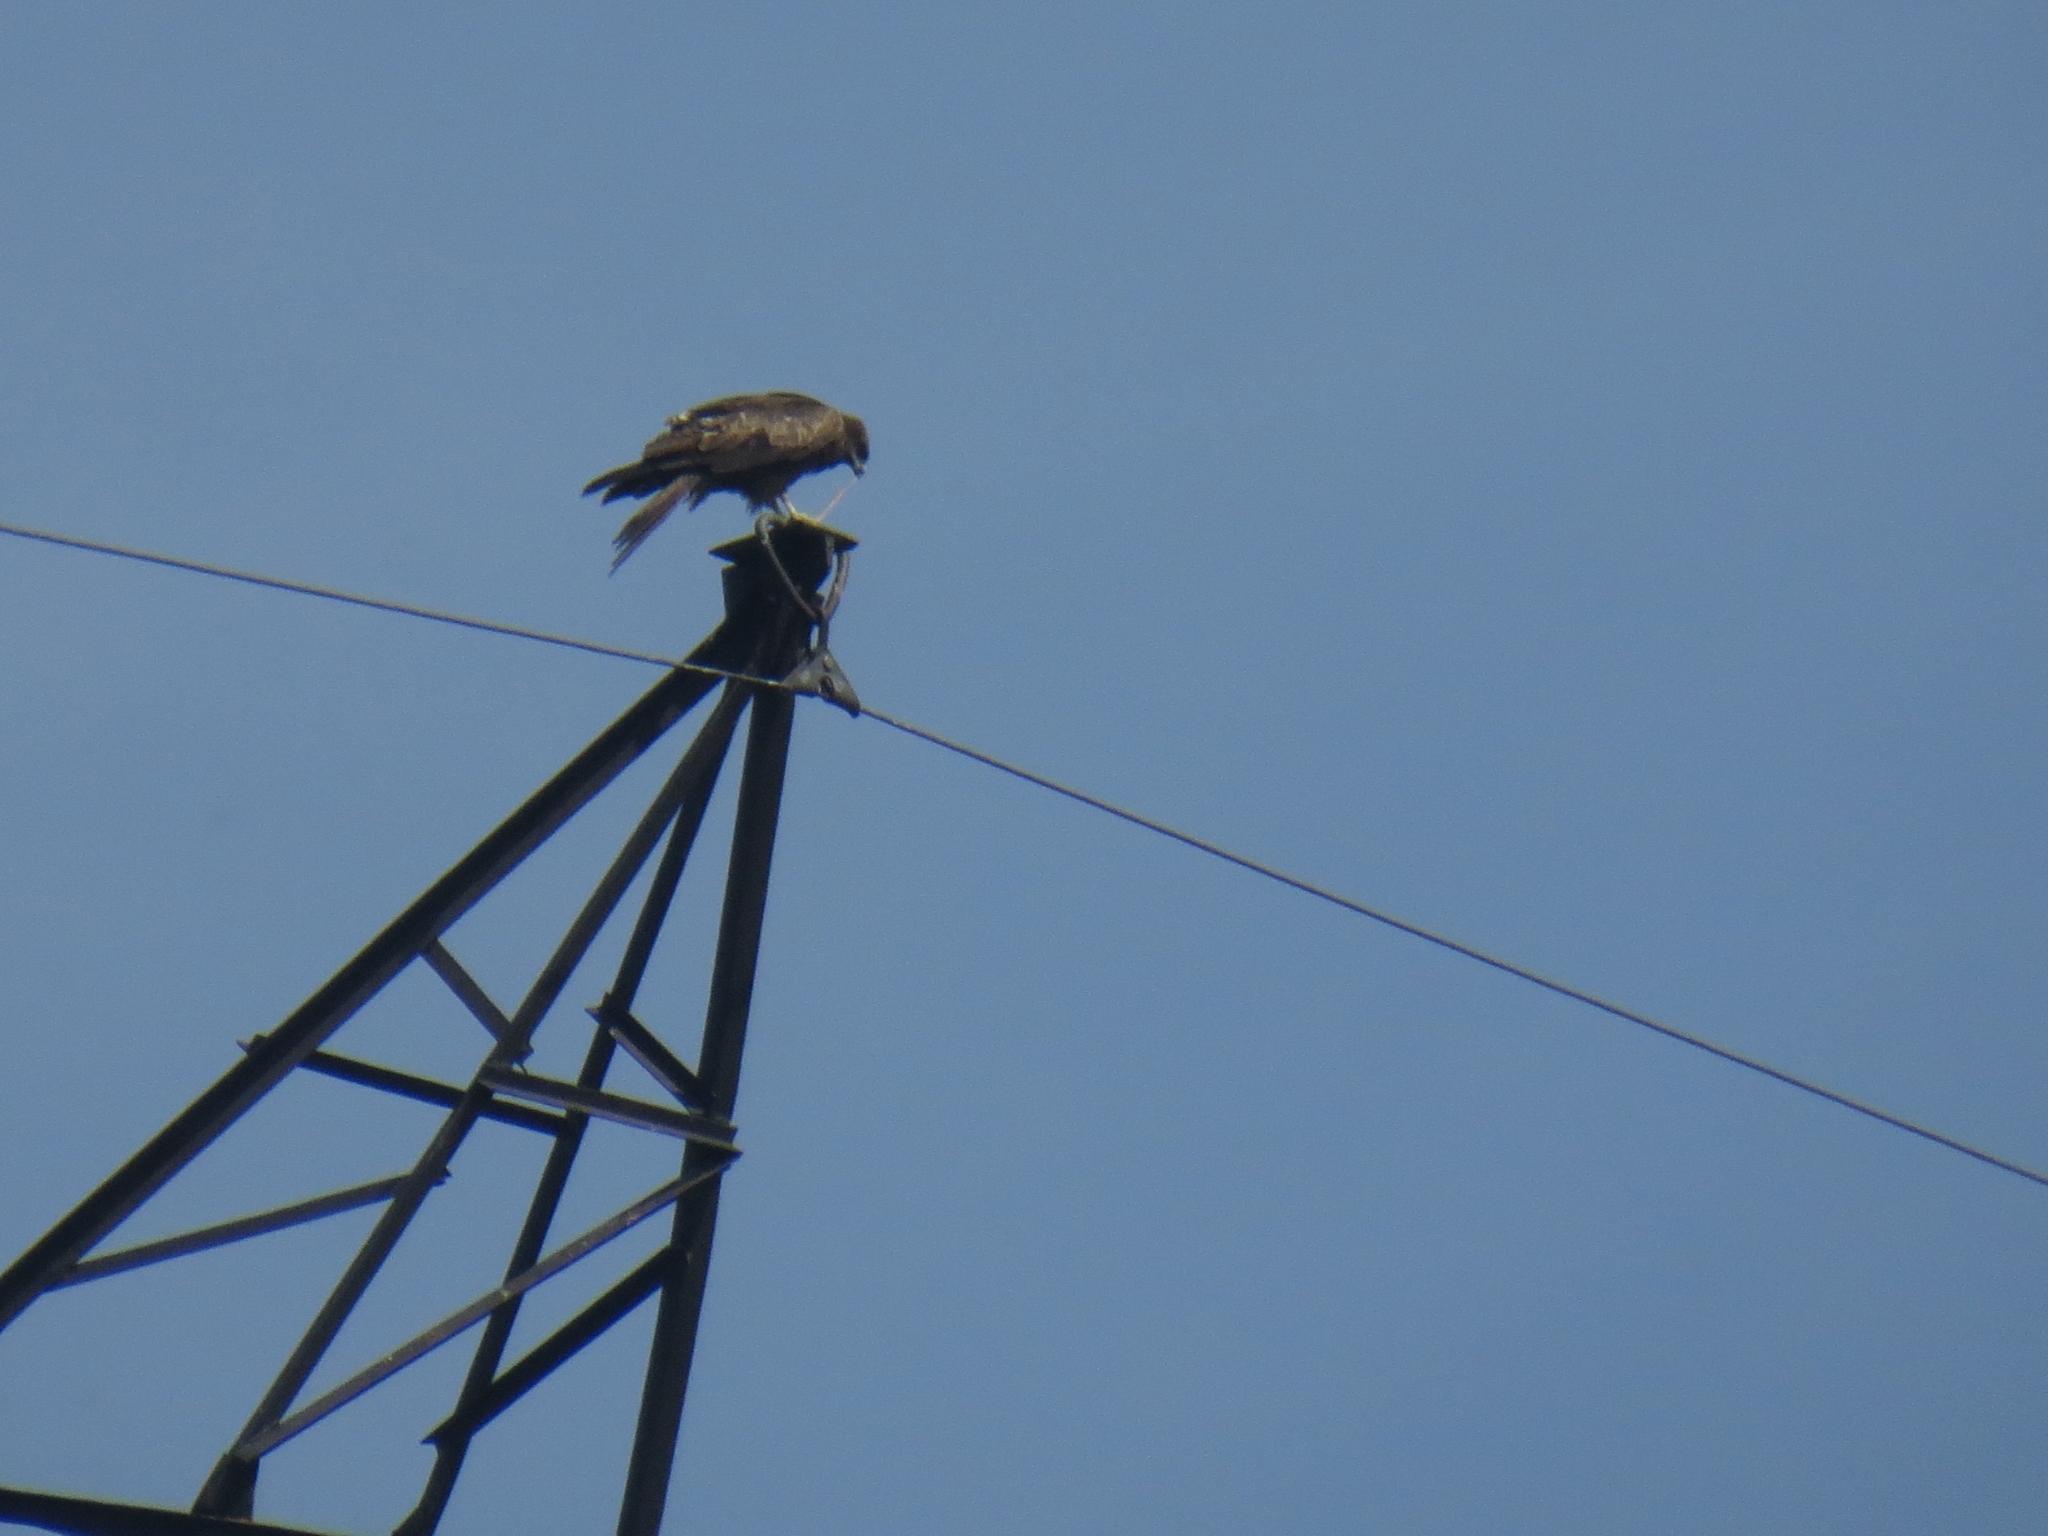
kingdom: Animalia
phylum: Chordata
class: Aves
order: Accipitriformes
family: Accipitridae
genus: Milvus
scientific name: Milvus migrans
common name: Black kite
